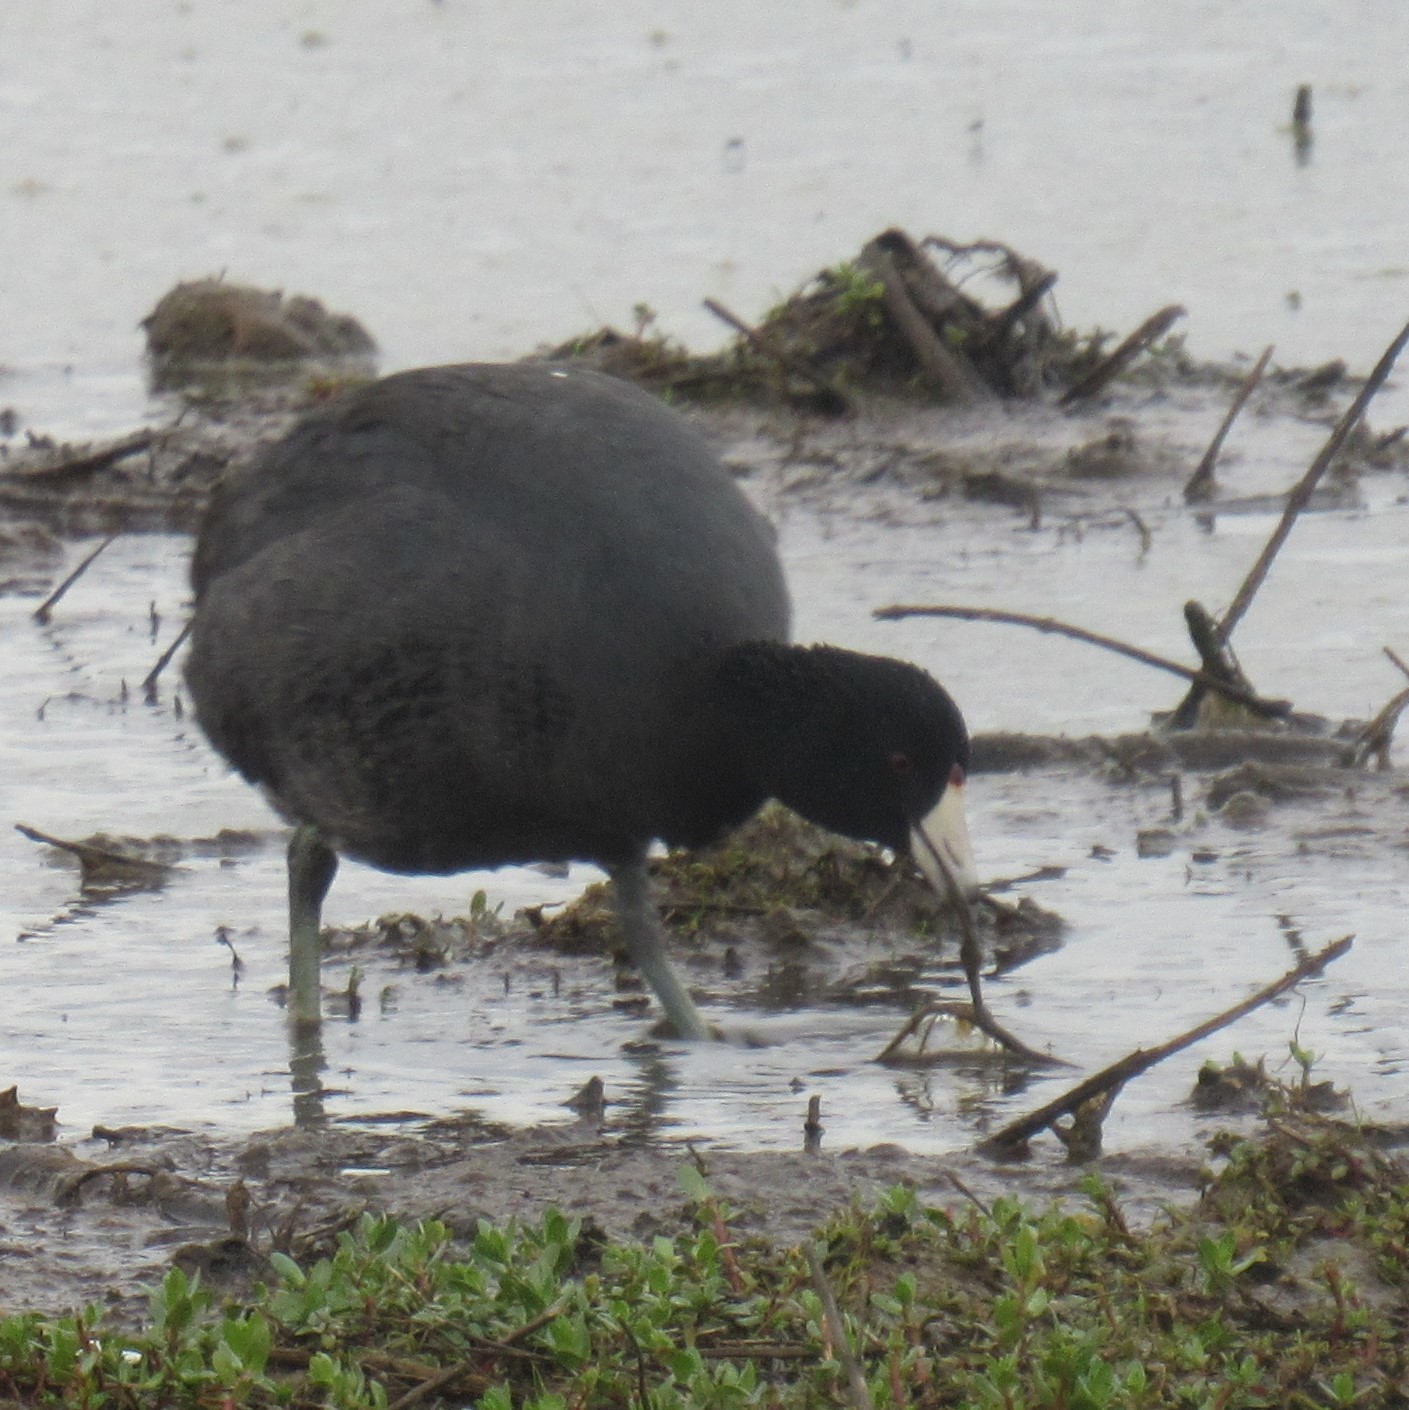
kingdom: Animalia
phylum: Chordata
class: Aves
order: Gruiformes
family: Rallidae
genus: Fulica
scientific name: Fulica americana
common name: American coot
